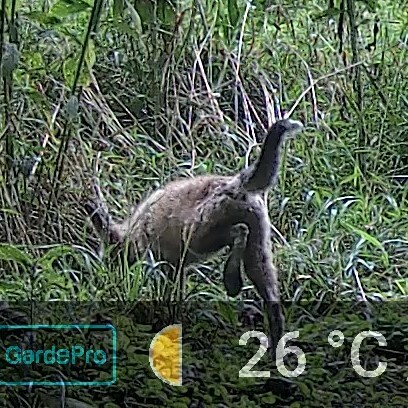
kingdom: Animalia
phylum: Chordata
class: Mammalia
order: Carnivora
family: Canidae
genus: Vulpes
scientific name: Vulpes vulpes
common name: Red fox
